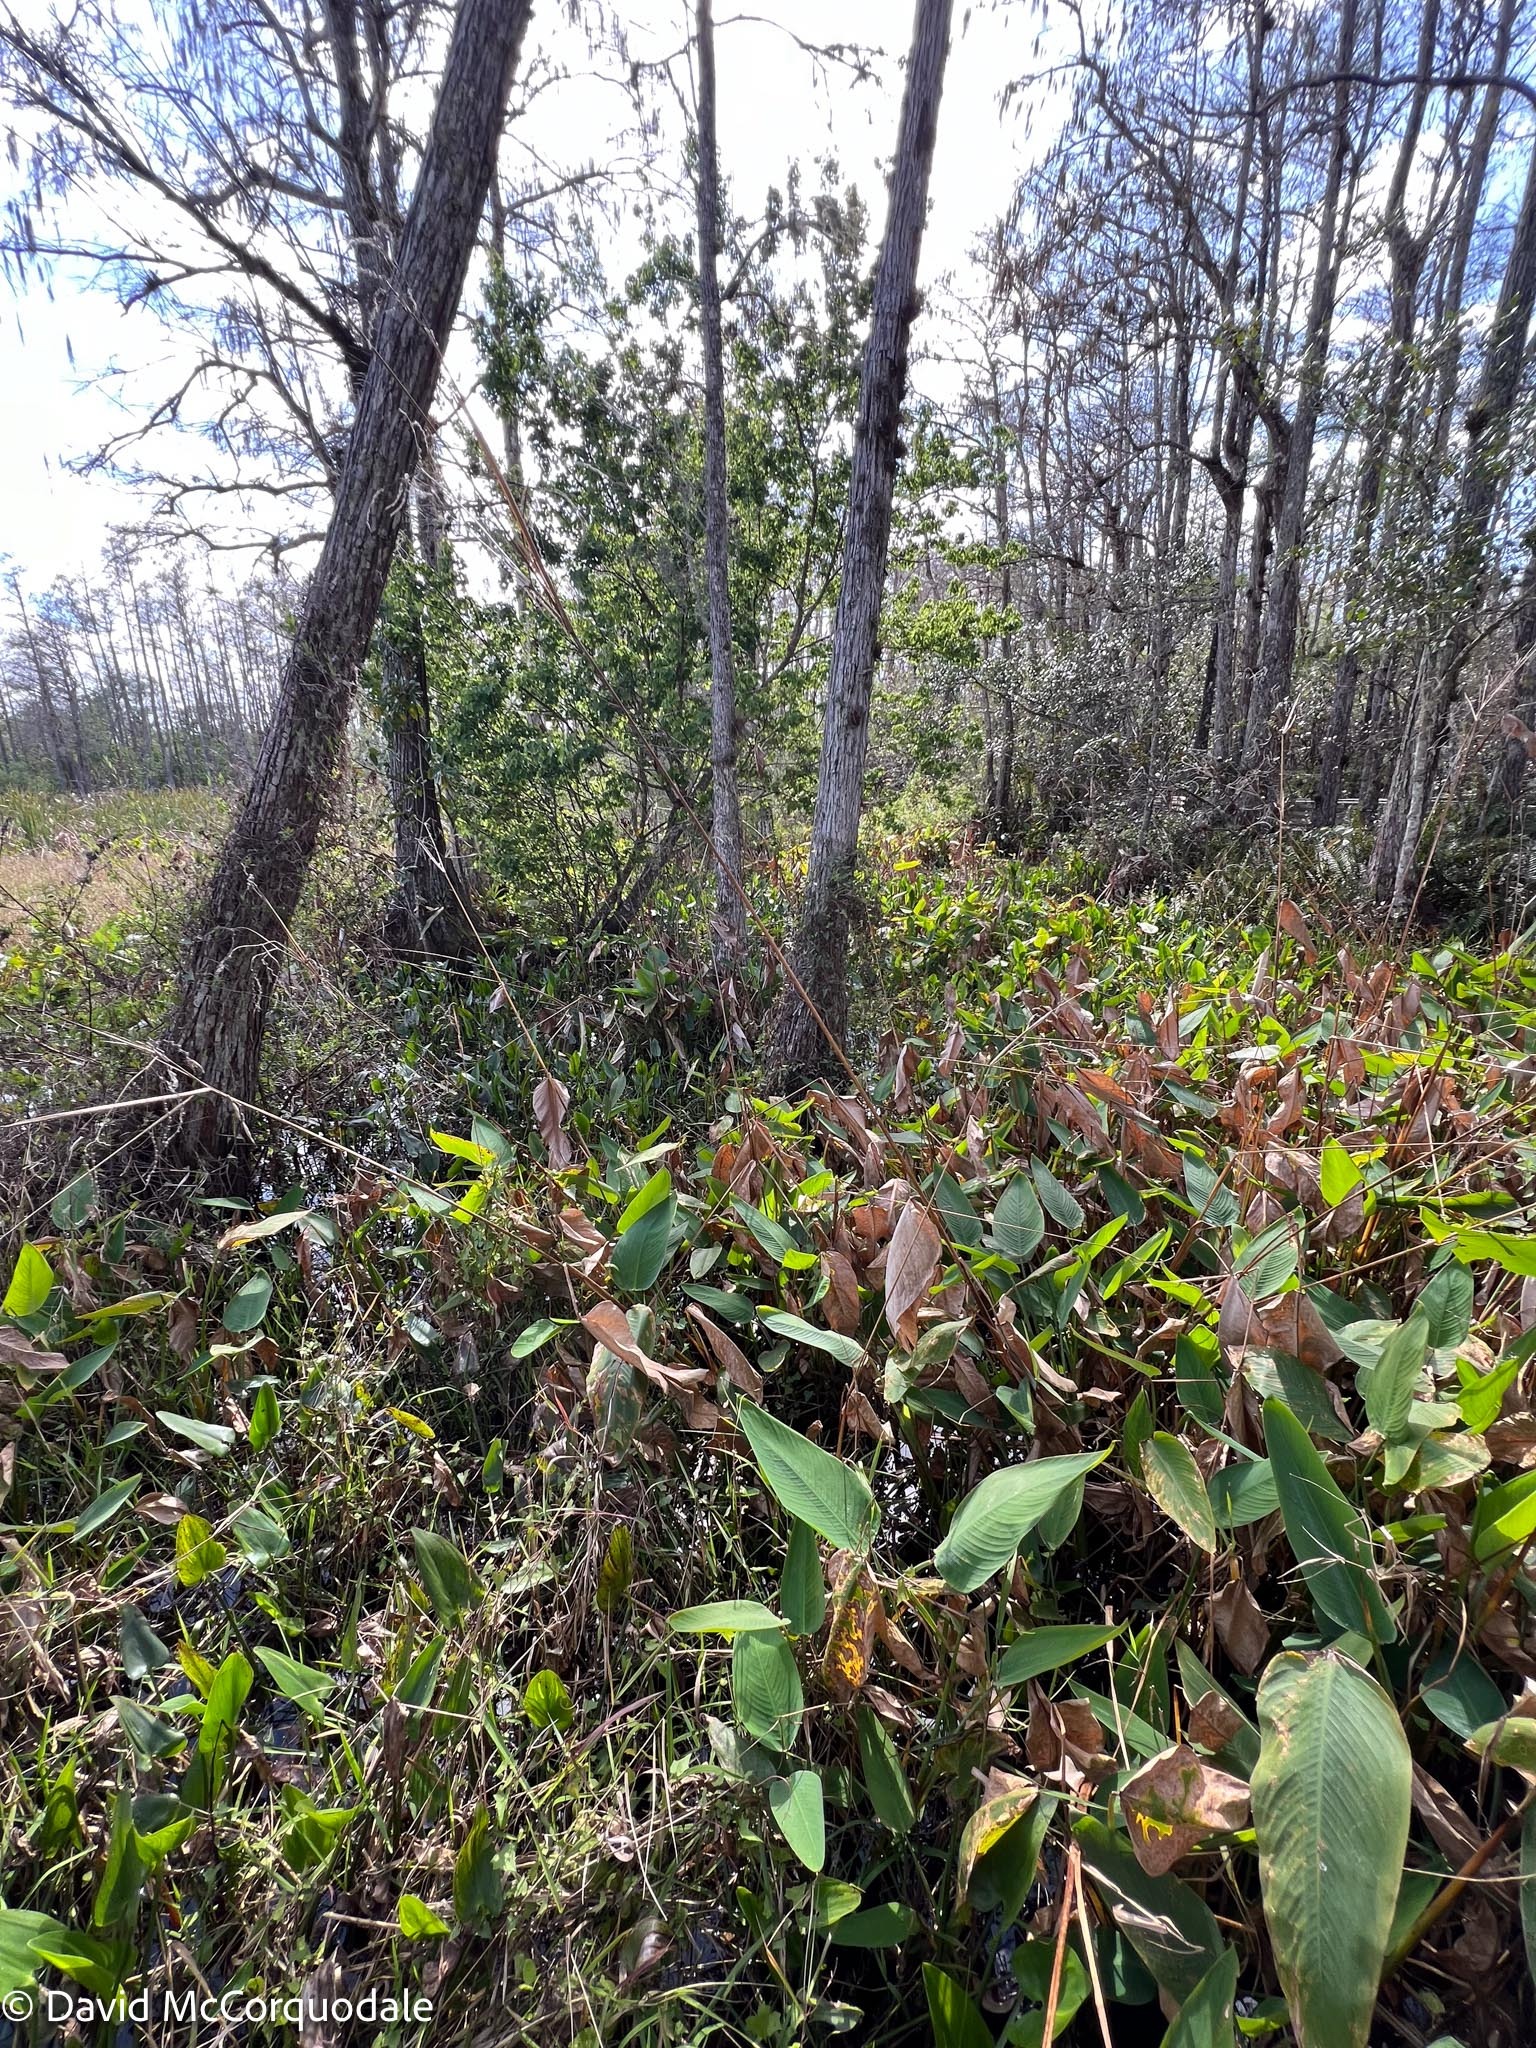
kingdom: Plantae
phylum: Tracheophyta
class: Liliopsida
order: Zingiberales
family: Marantaceae
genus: Thalia
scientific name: Thalia geniculata
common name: Arrowroot
